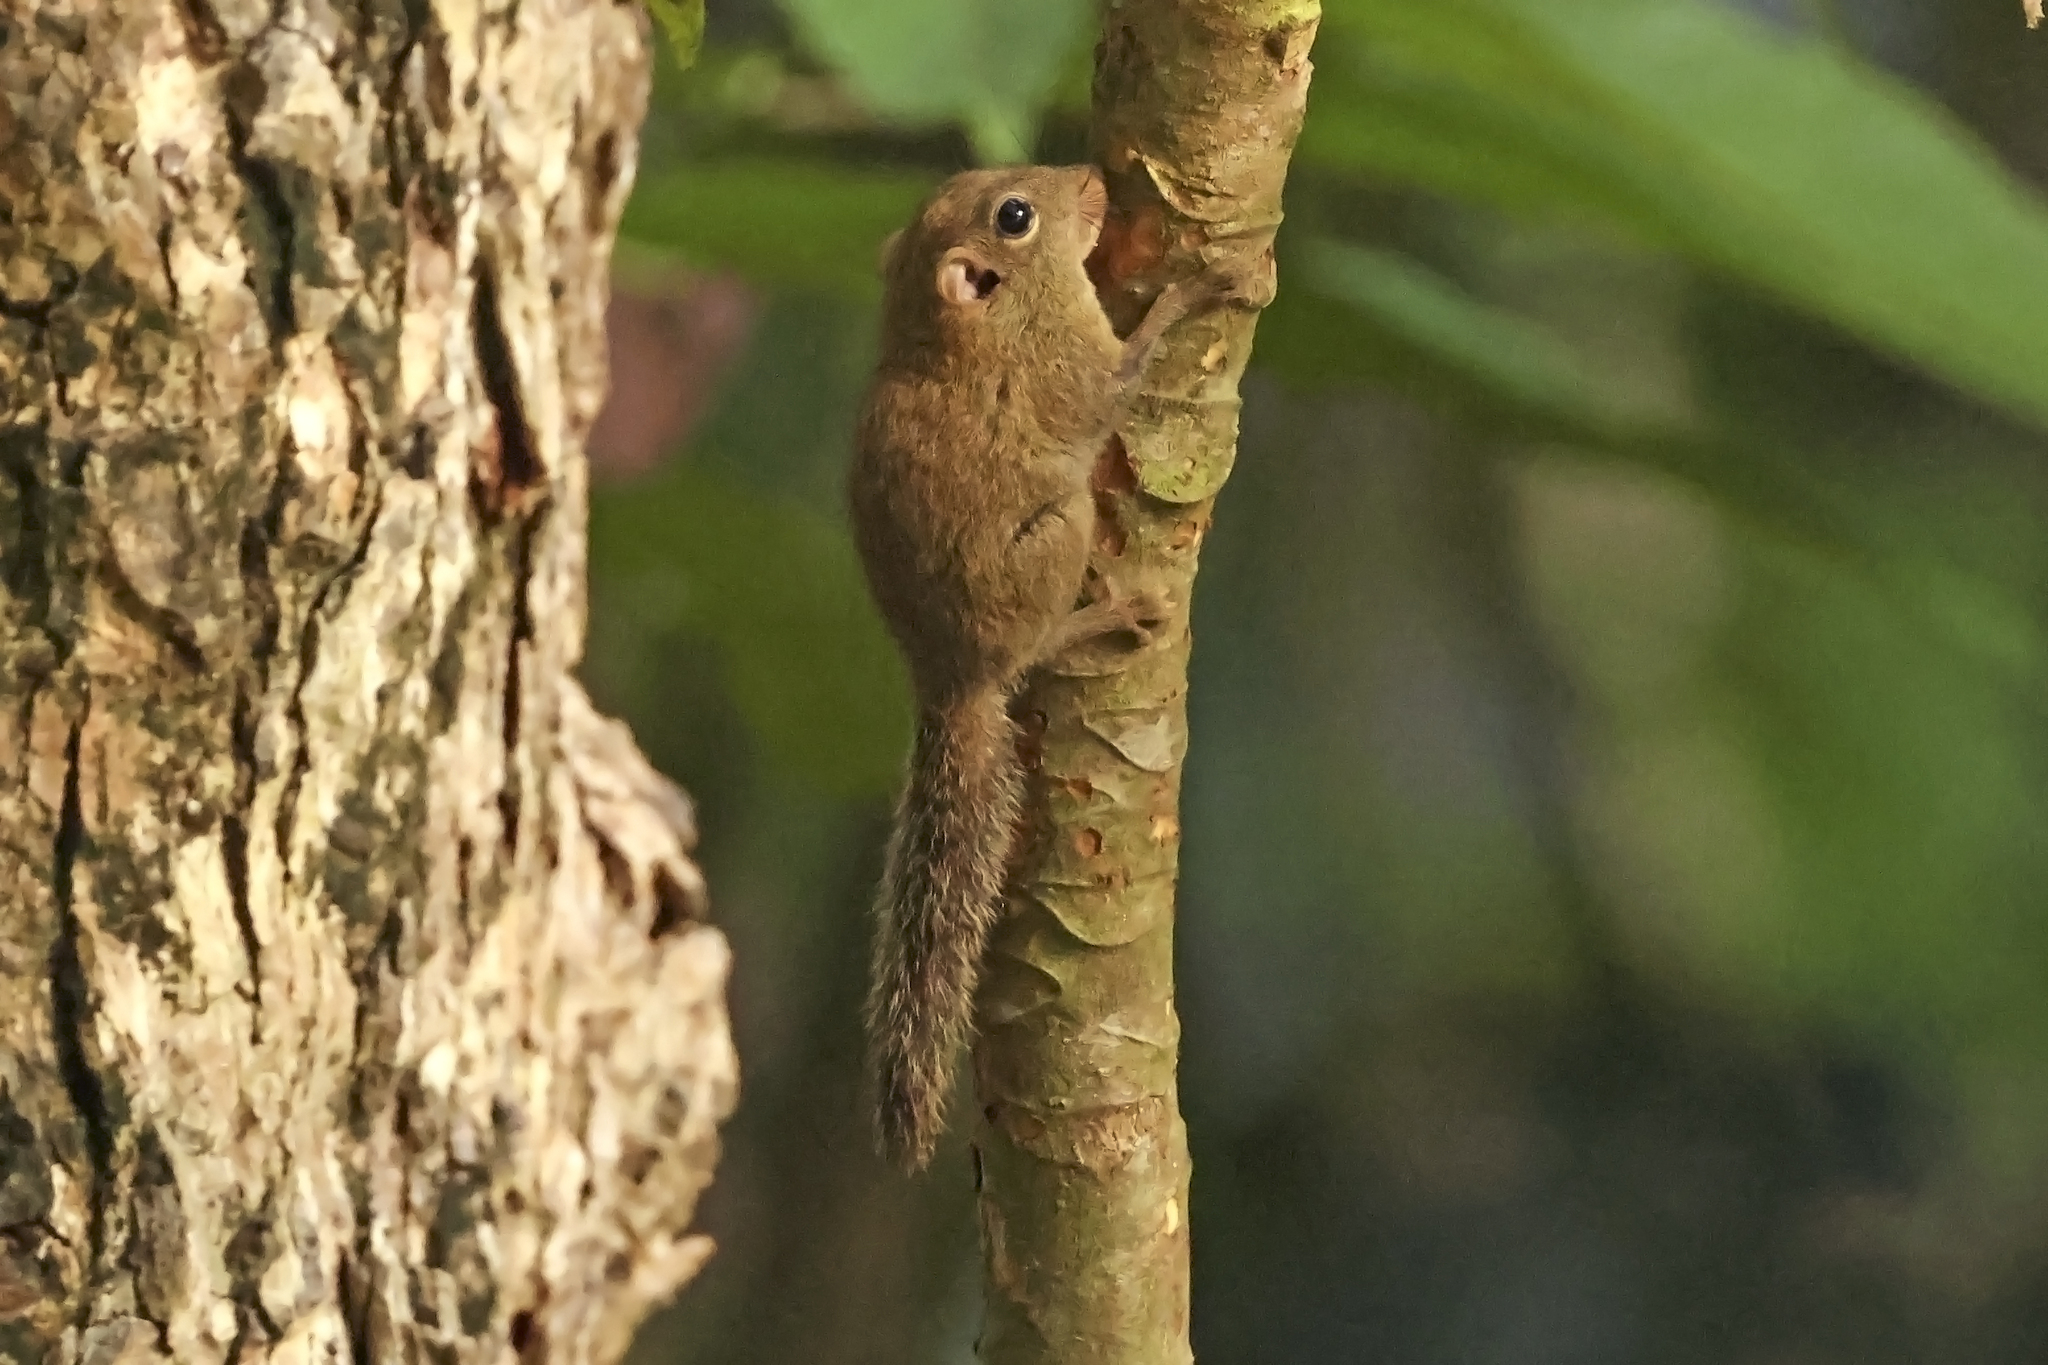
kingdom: Animalia
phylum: Chordata
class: Mammalia
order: Rodentia
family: Sciuridae
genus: Exilisciurus
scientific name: Exilisciurus exilis
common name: Least pygmy squirrel
